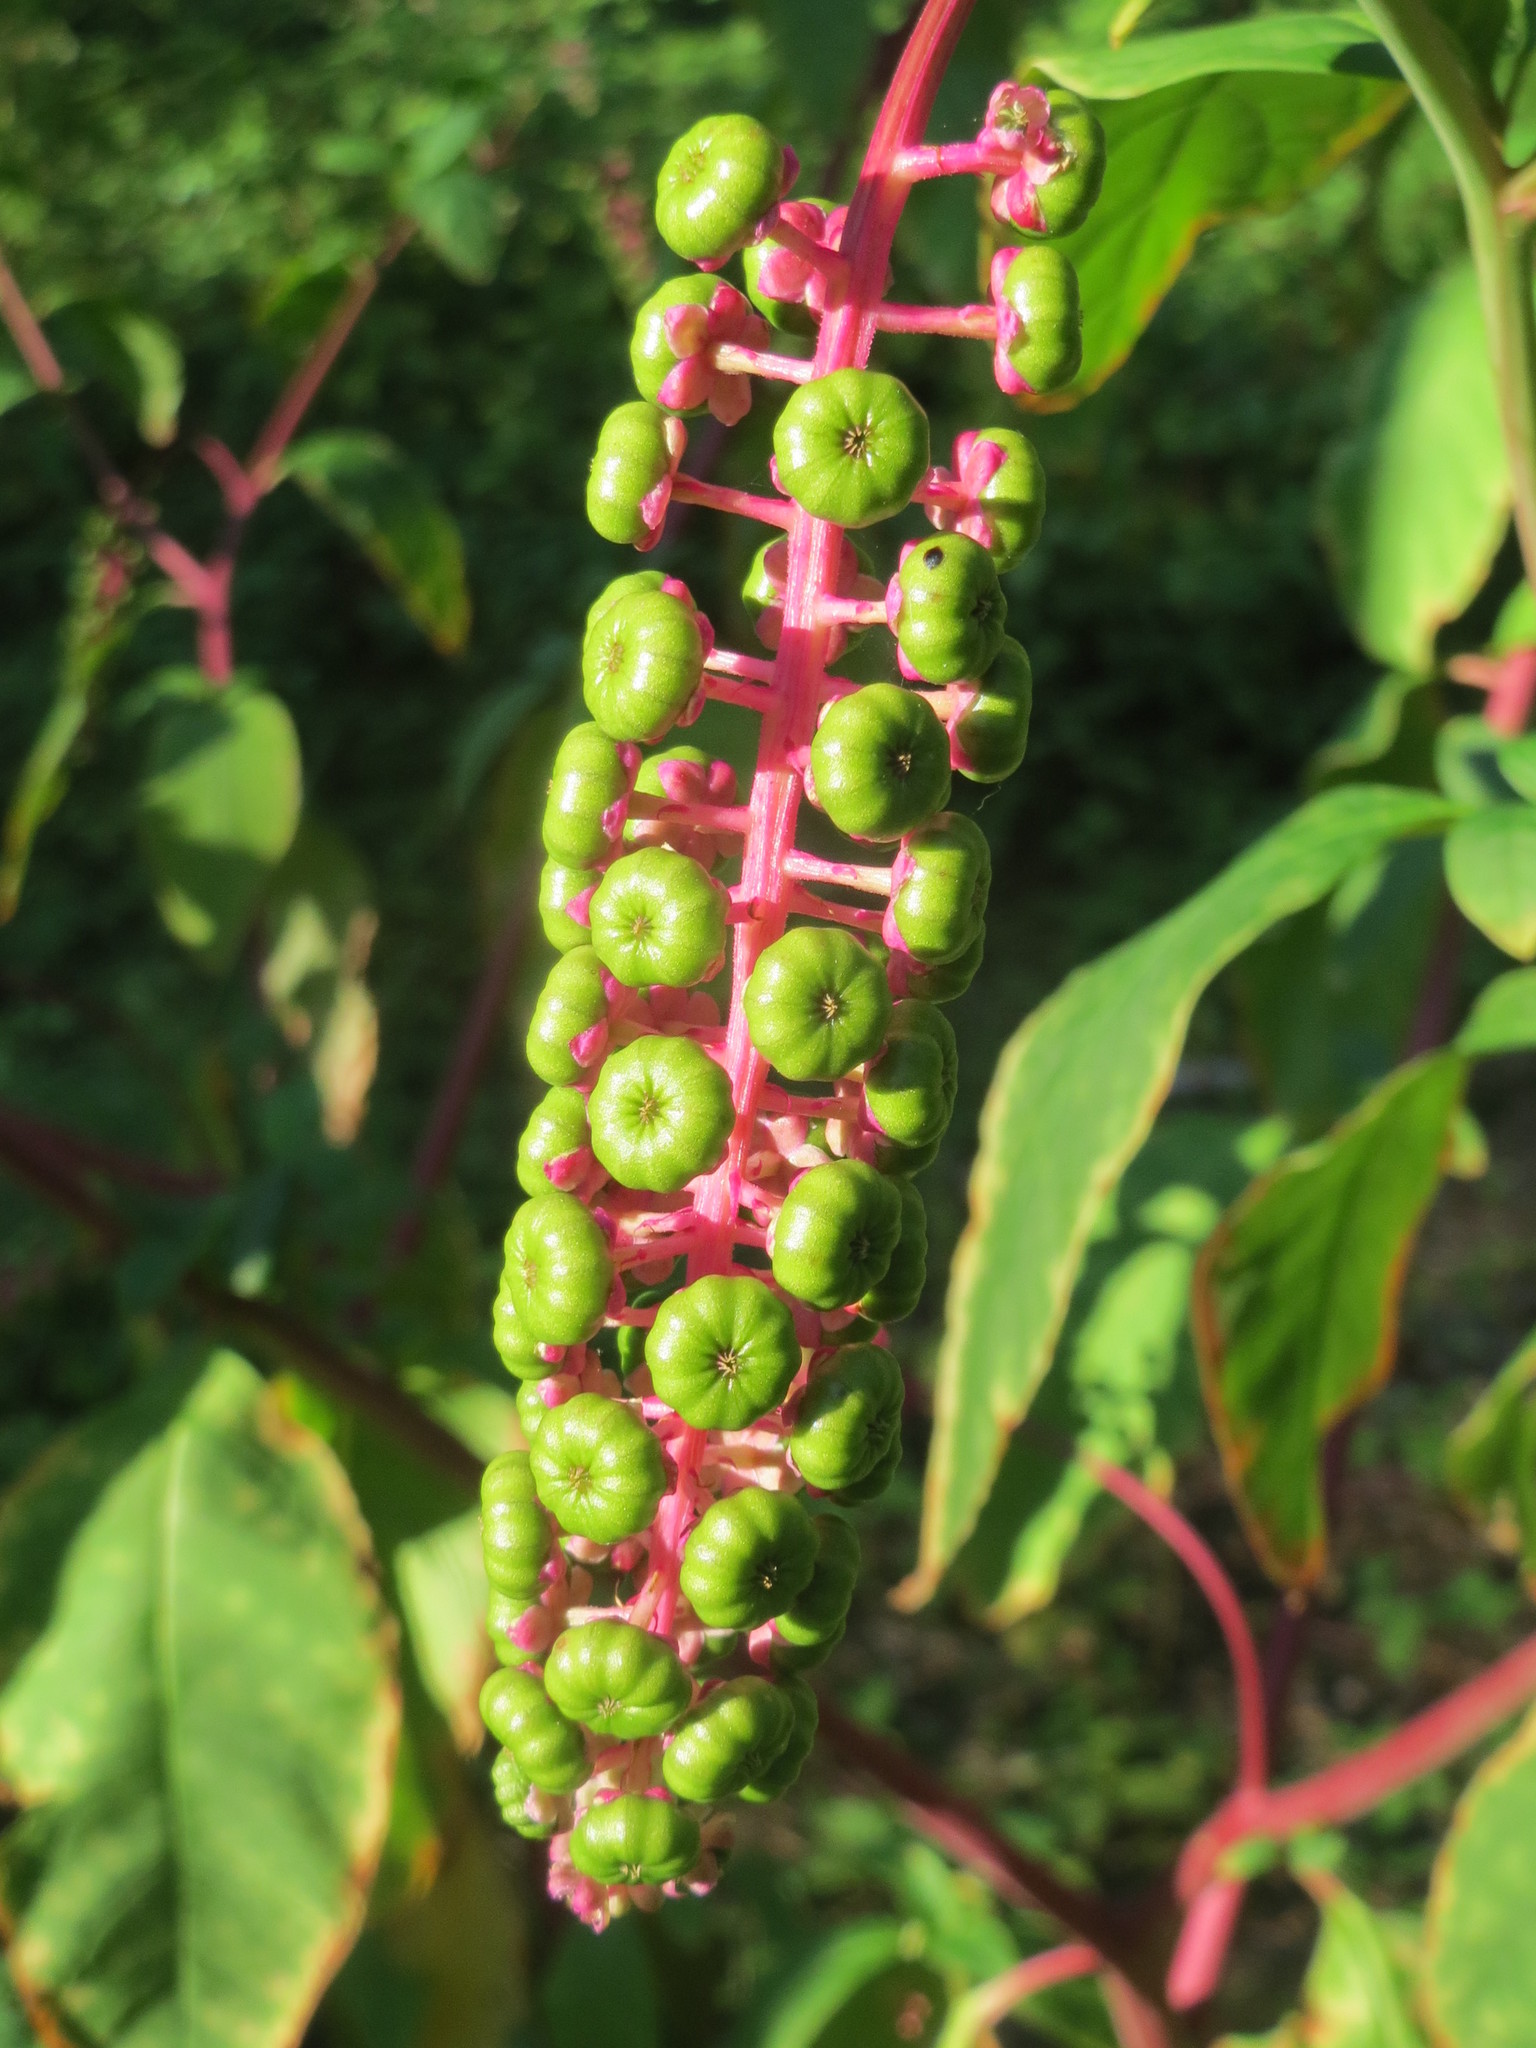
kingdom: Plantae
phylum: Tracheophyta
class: Magnoliopsida
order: Caryophyllales
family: Phytolaccaceae
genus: Phytolacca
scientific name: Phytolacca americana
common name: American pokeweed
